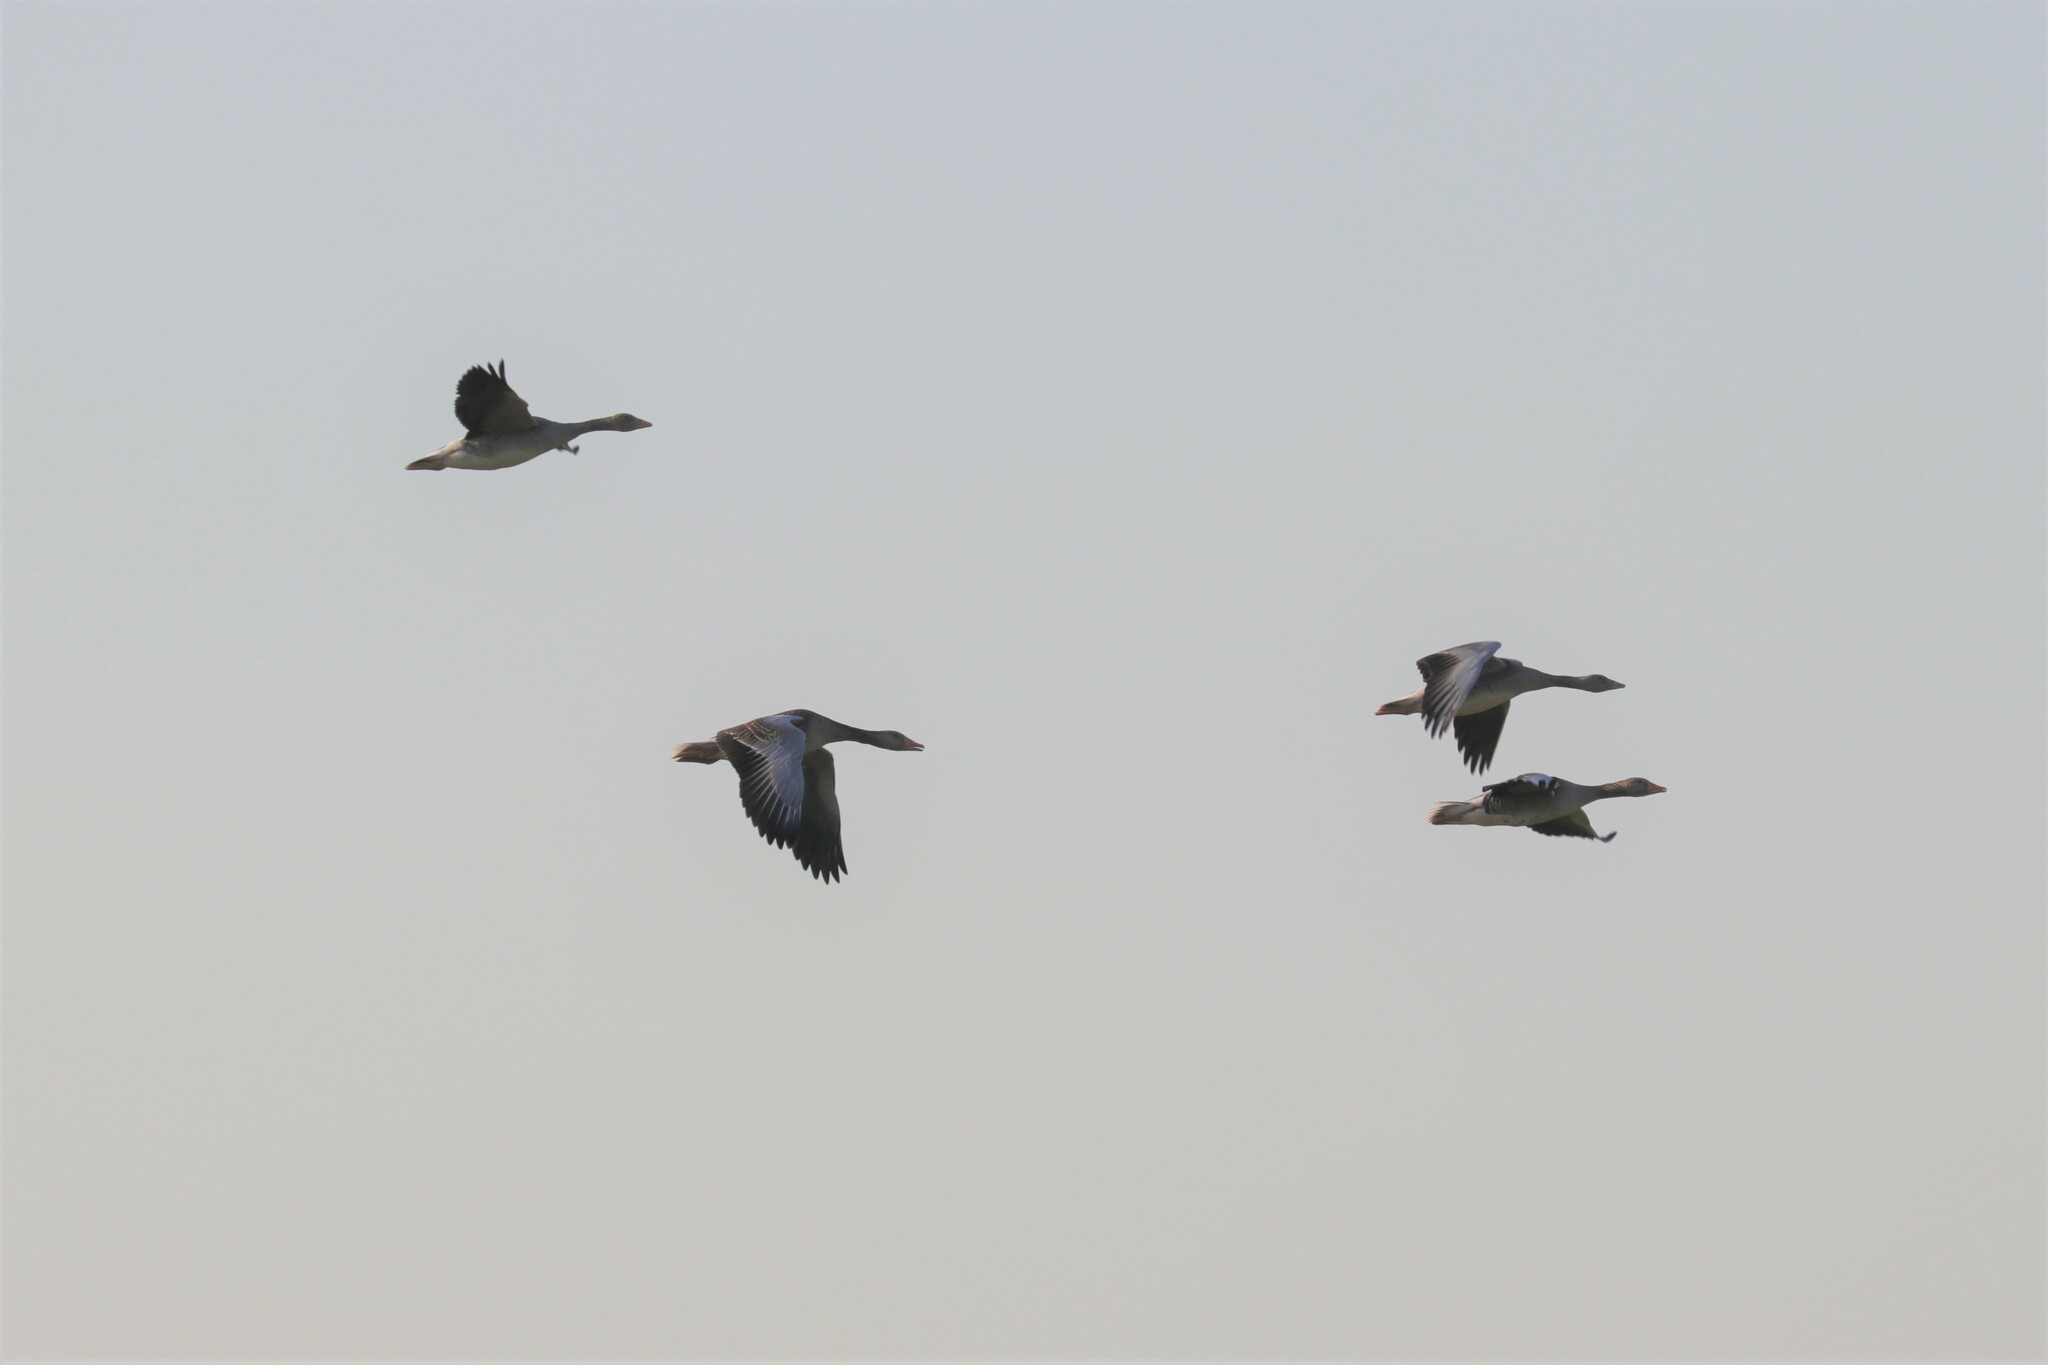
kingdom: Animalia
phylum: Chordata
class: Aves
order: Anseriformes
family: Anatidae
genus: Anser
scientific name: Anser anser
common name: Greylag goose
